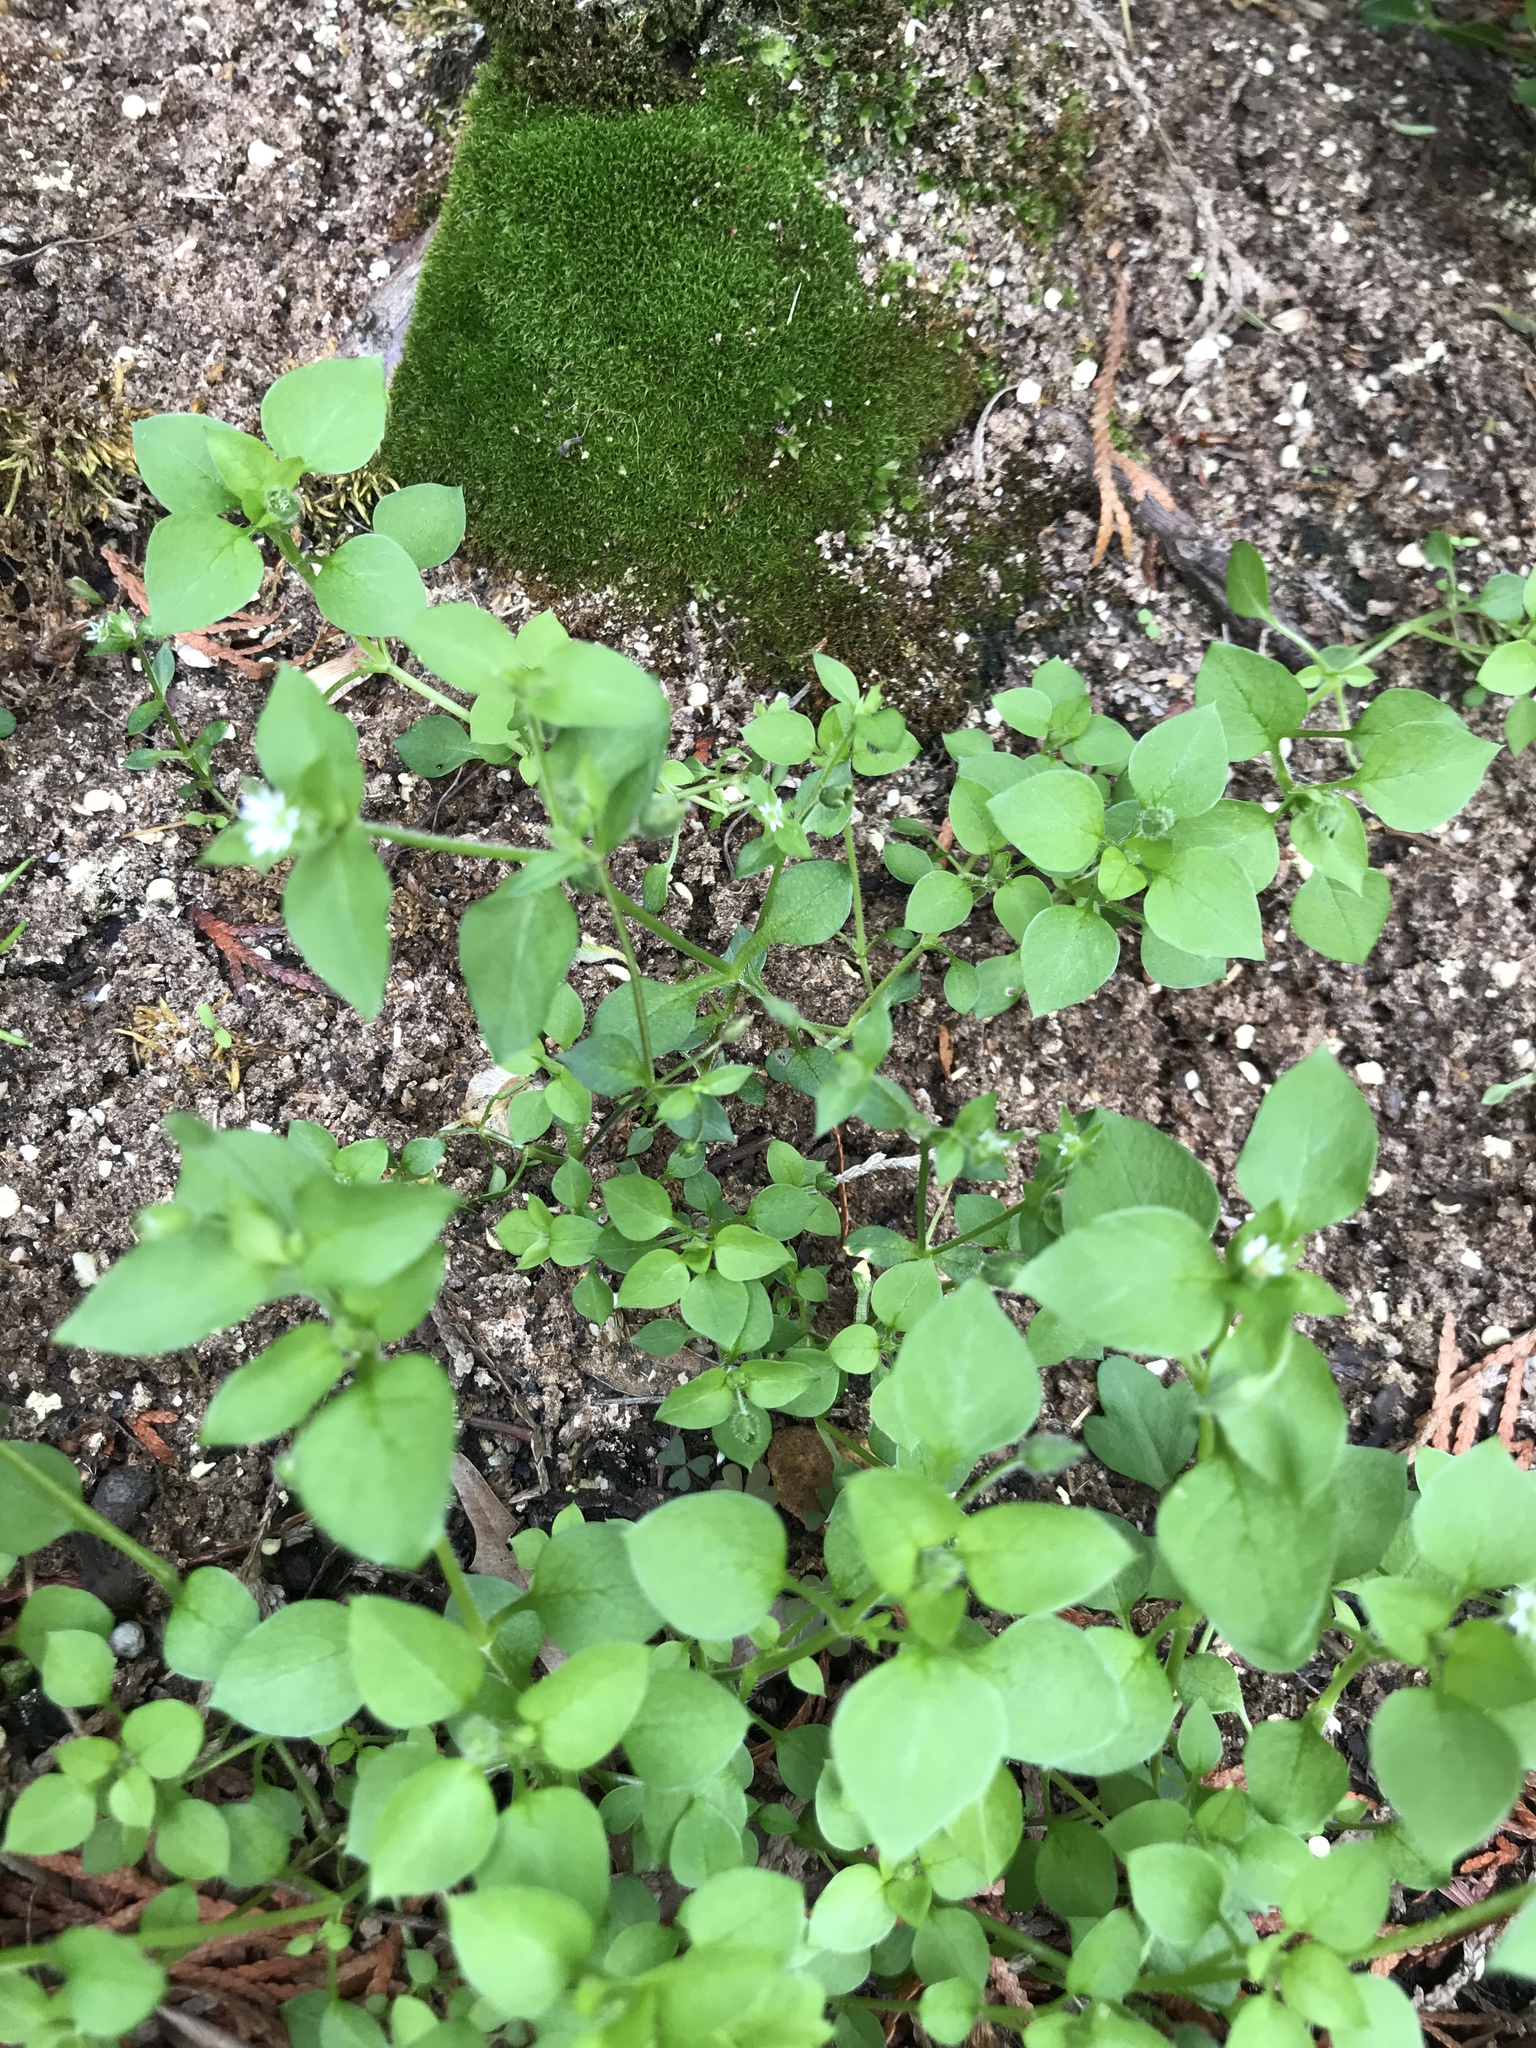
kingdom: Plantae
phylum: Tracheophyta
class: Magnoliopsida
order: Caryophyllales
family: Caryophyllaceae
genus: Stellaria
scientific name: Stellaria media
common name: Common chickweed
